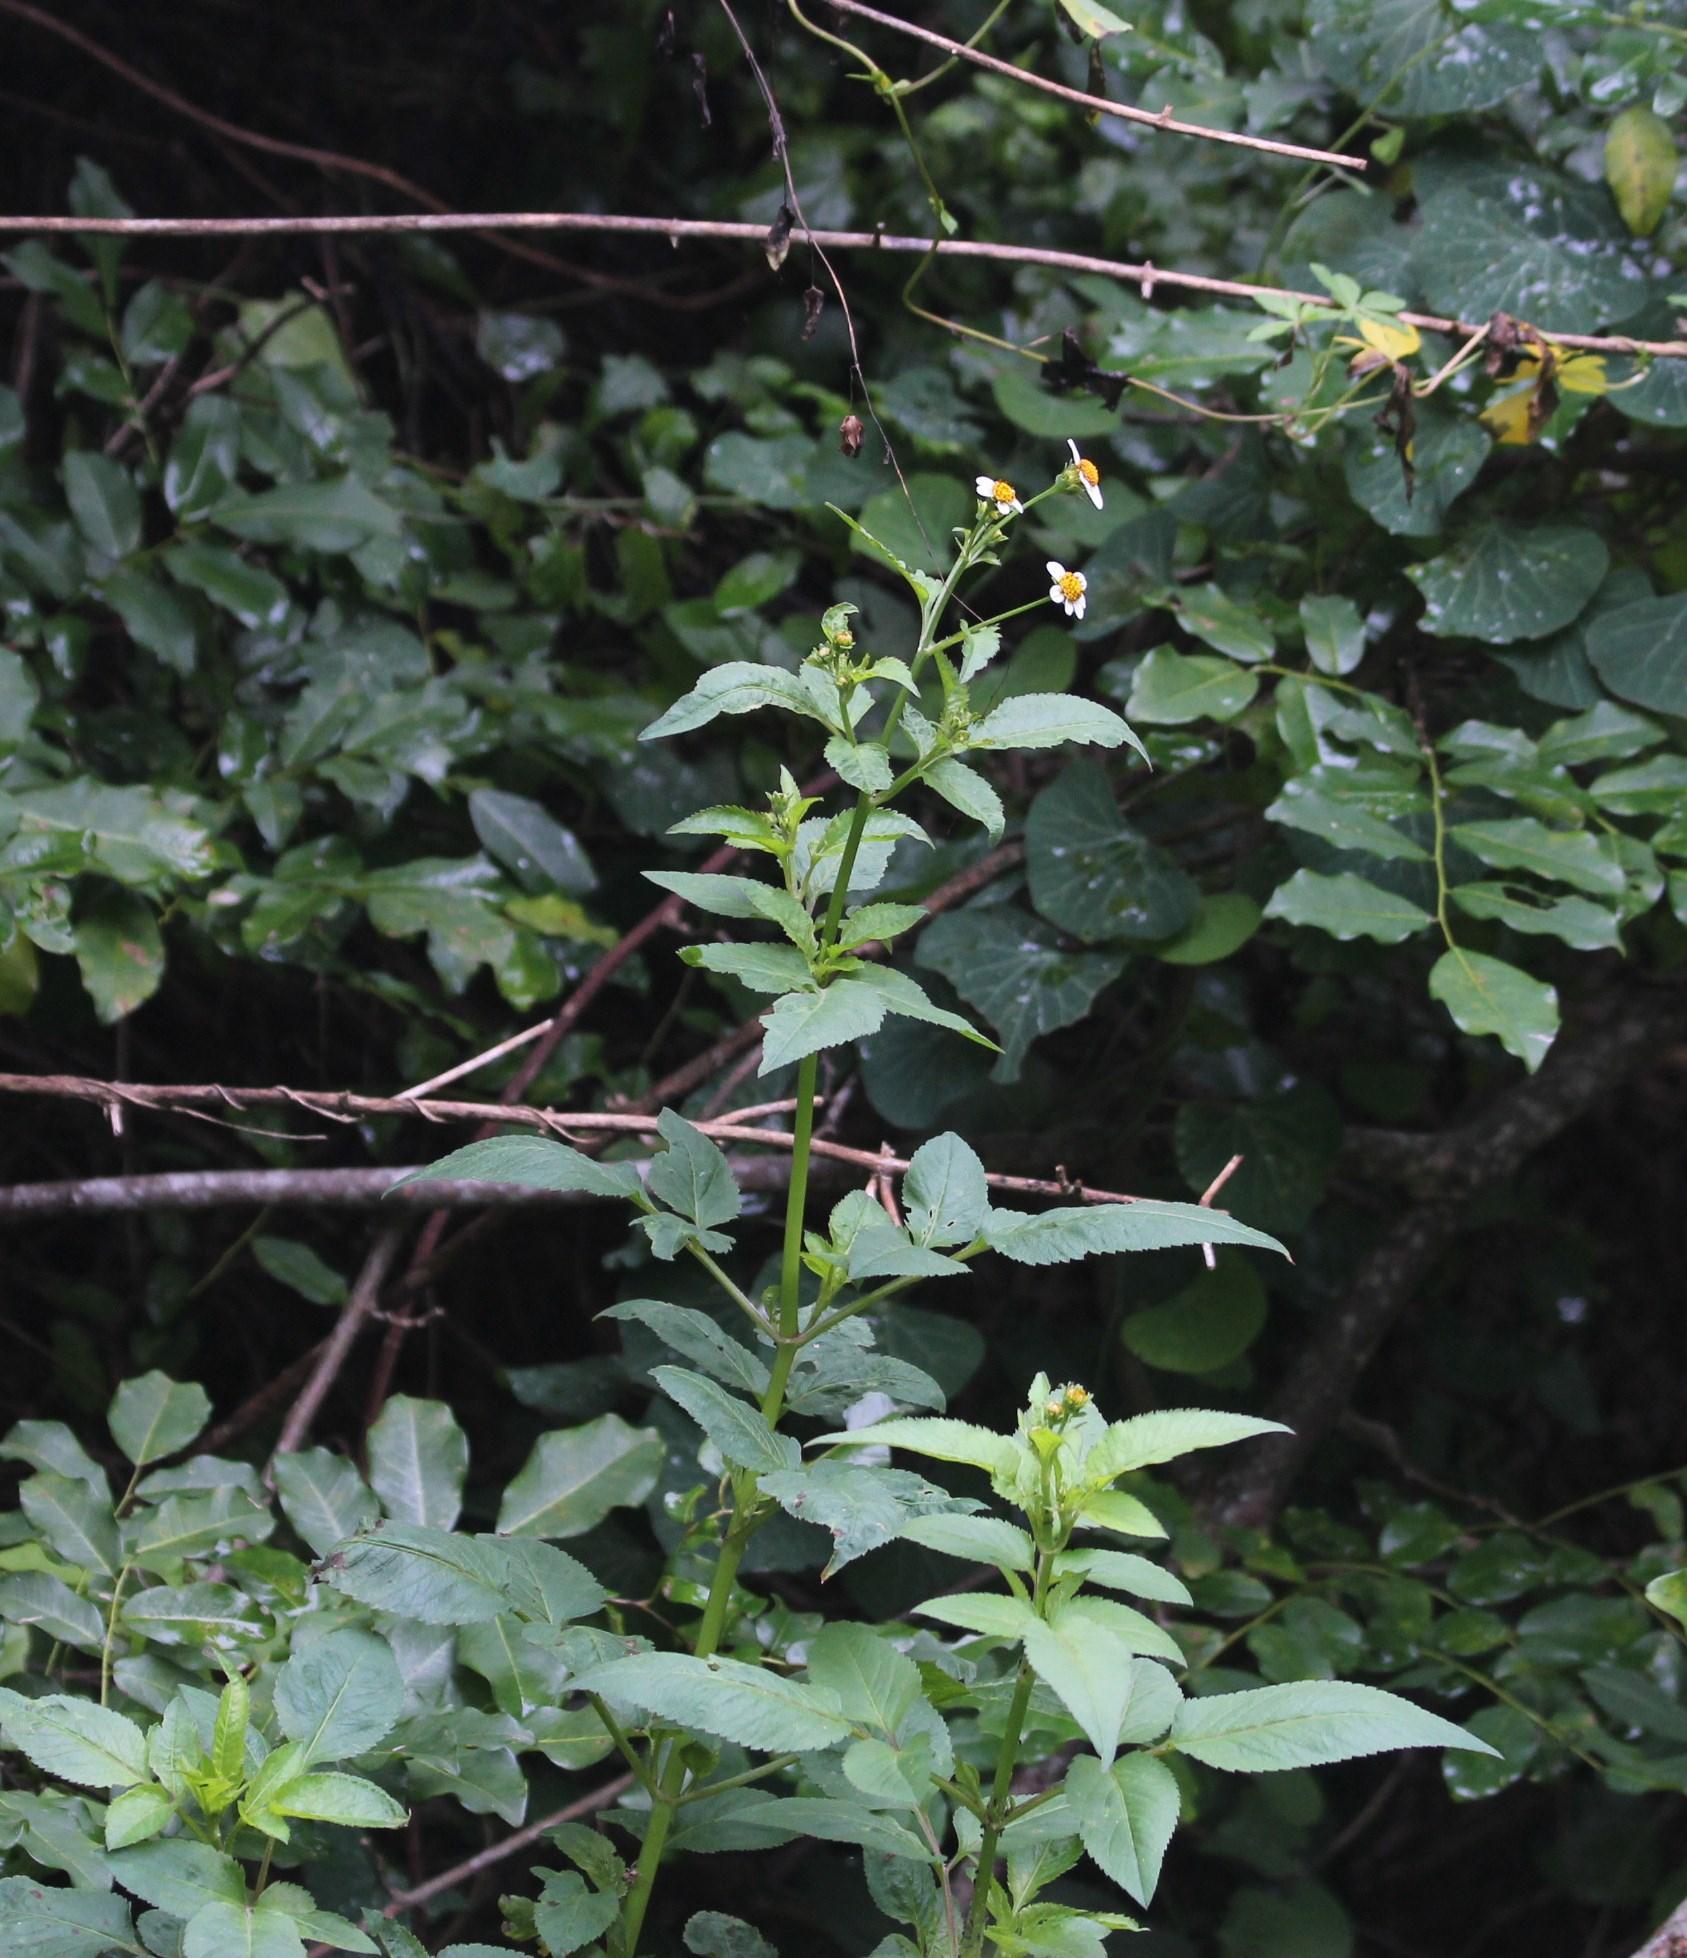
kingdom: Plantae
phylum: Tracheophyta
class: Magnoliopsida
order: Asterales
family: Asteraceae
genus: Bidens
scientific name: Bidens pilosa
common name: Black-jack
